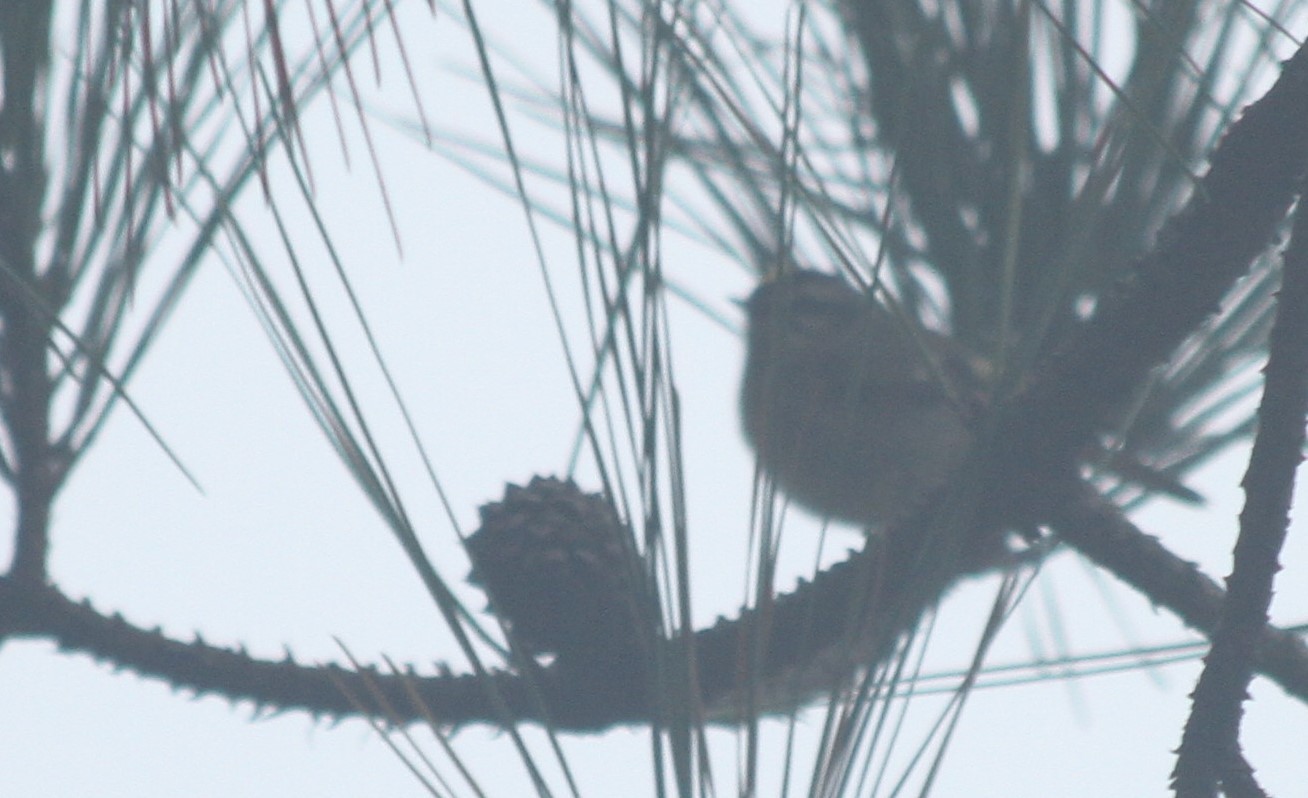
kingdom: Animalia
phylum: Chordata
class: Aves
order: Passeriformes
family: Regulidae
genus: Regulus
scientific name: Regulus satrapa
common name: Golden-crowned kinglet
